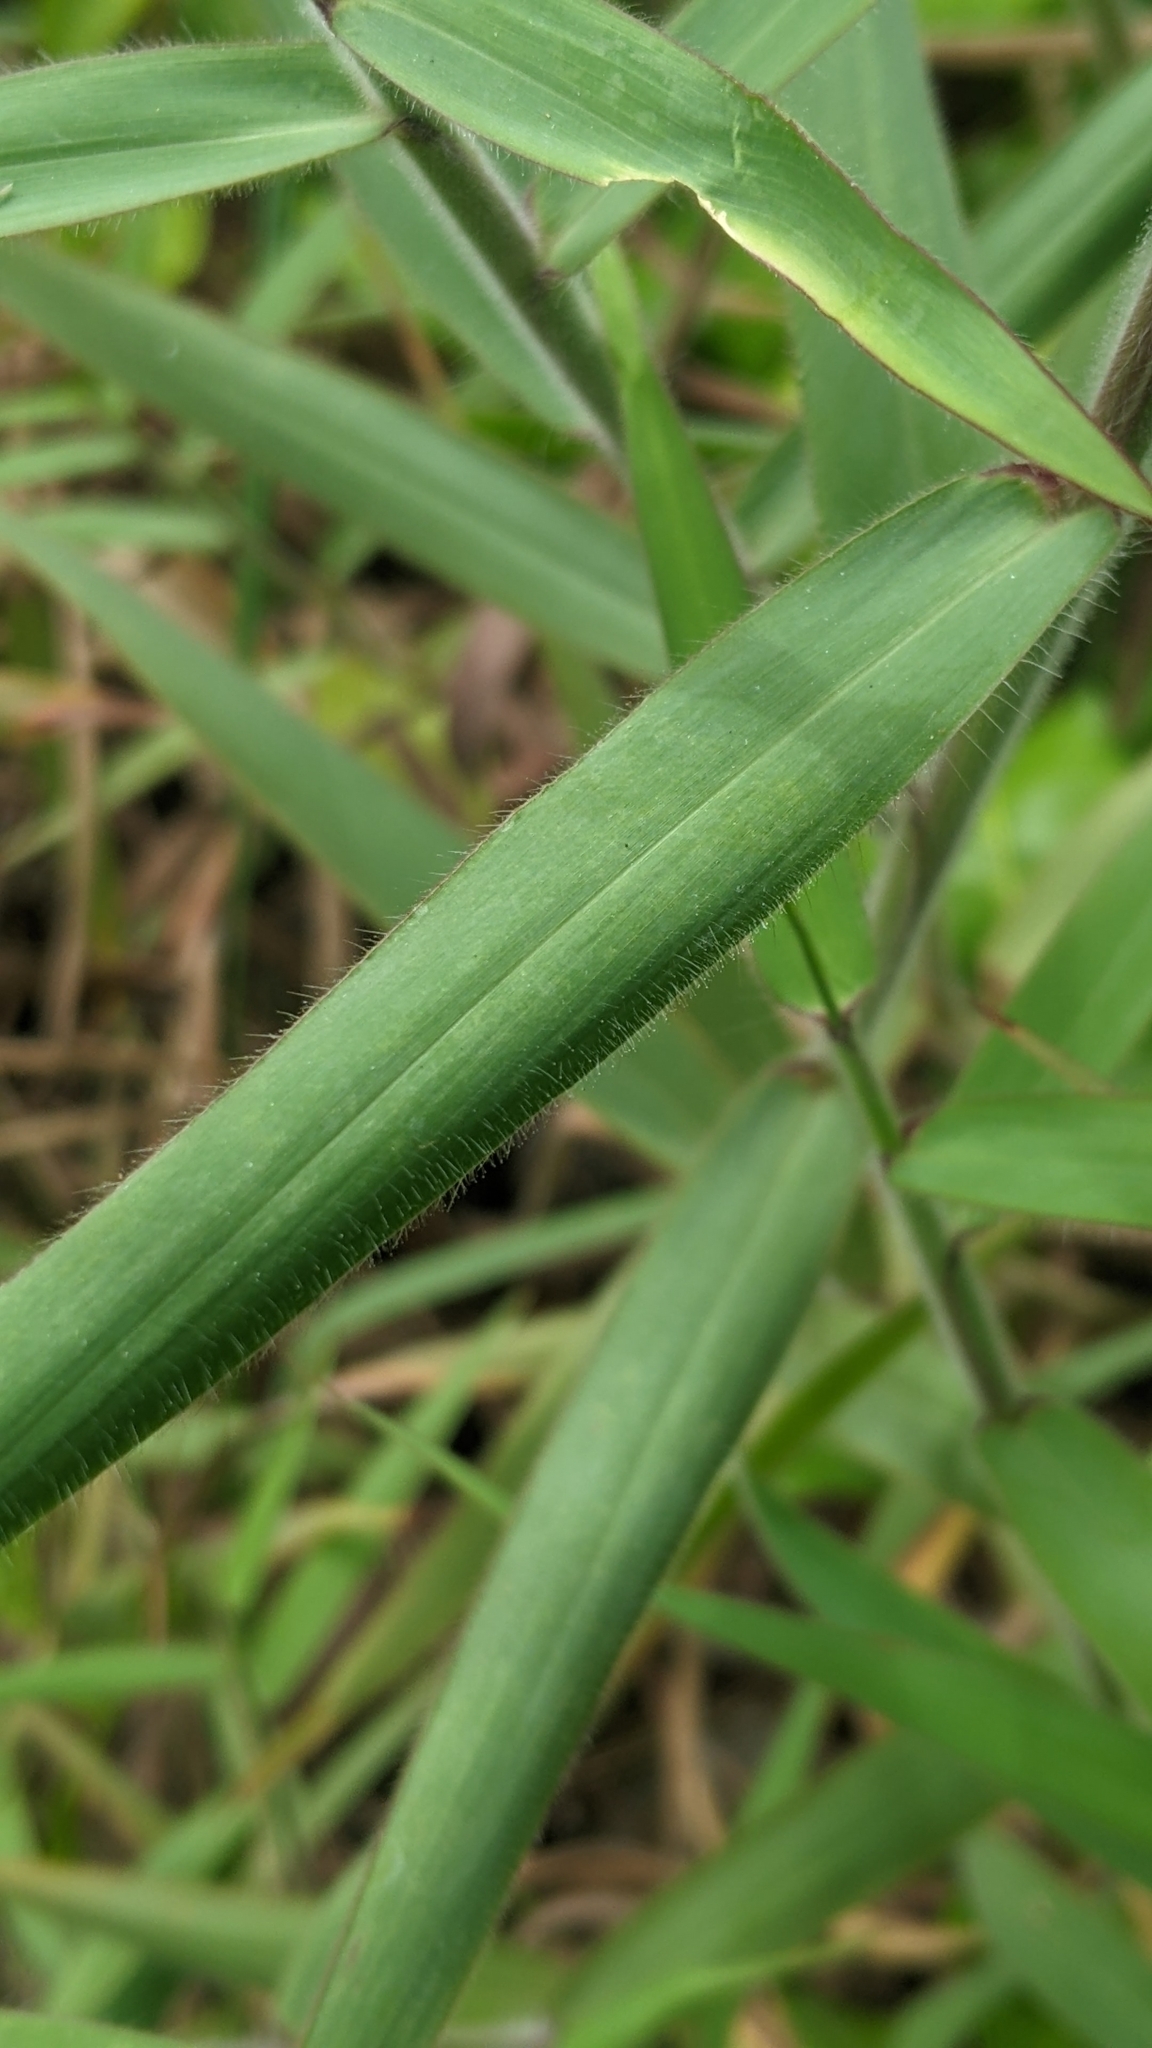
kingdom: Plantae
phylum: Tracheophyta
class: Liliopsida
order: Poales
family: Poaceae
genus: Melinis
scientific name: Melinis minutiflora
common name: Molassesgrass
